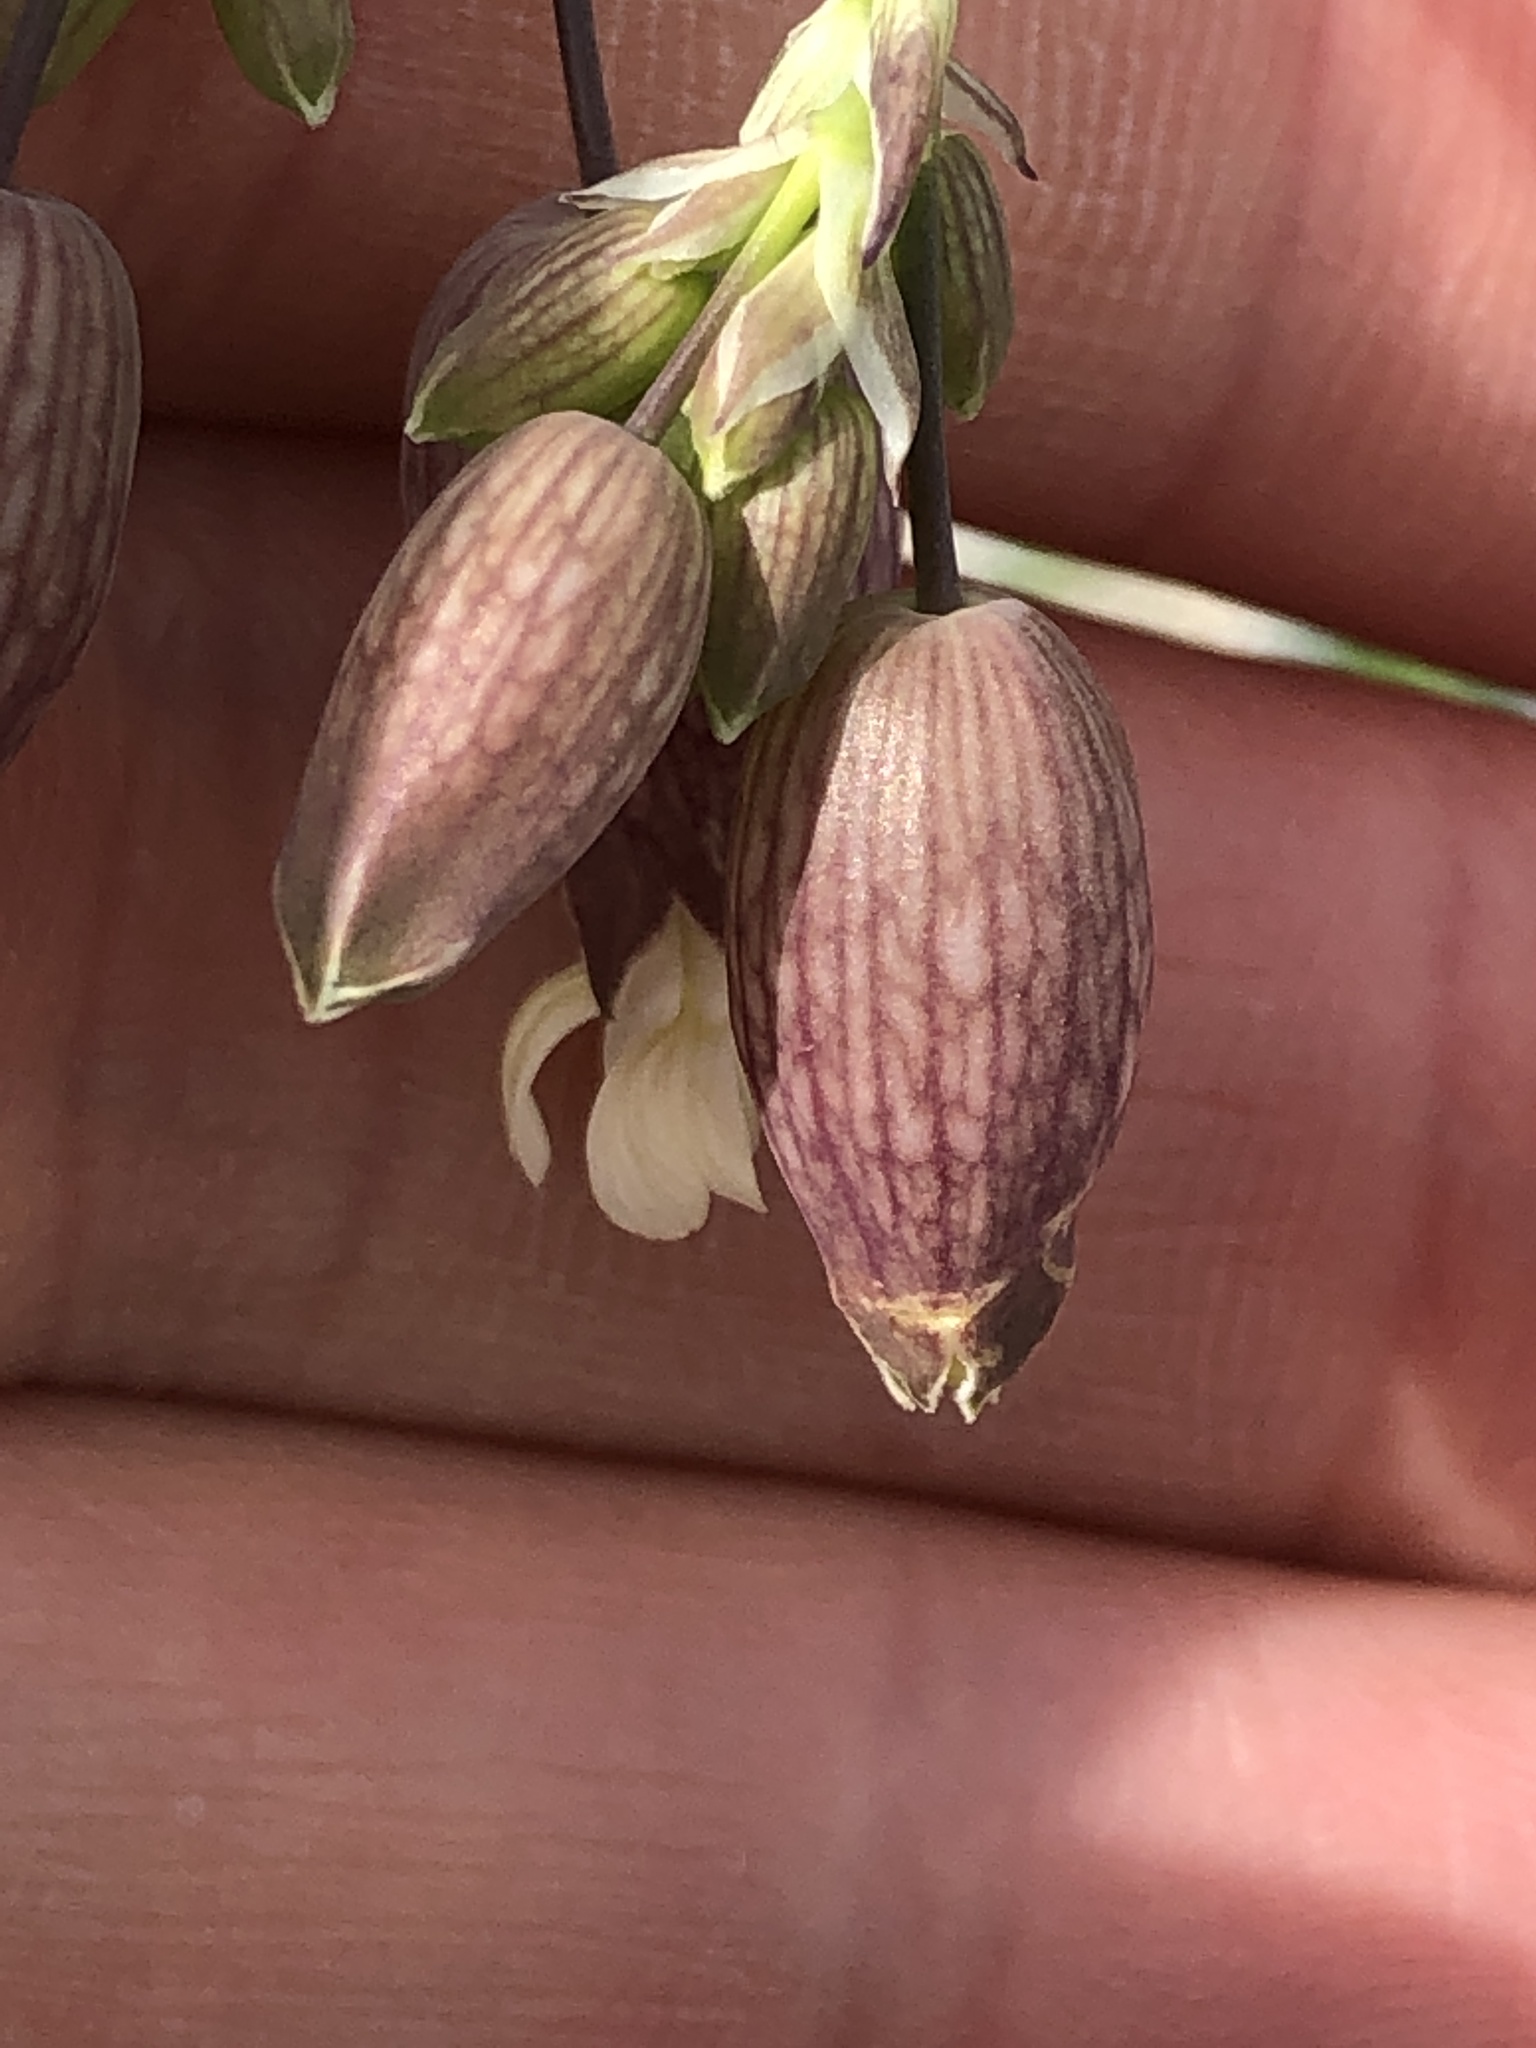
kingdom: Plantae
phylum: Tracheophyta
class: Magnoliopsida
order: Caryophyllales
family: Caryophyllaceae
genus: Silene
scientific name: Silene vulgaris
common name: Bladder campion
